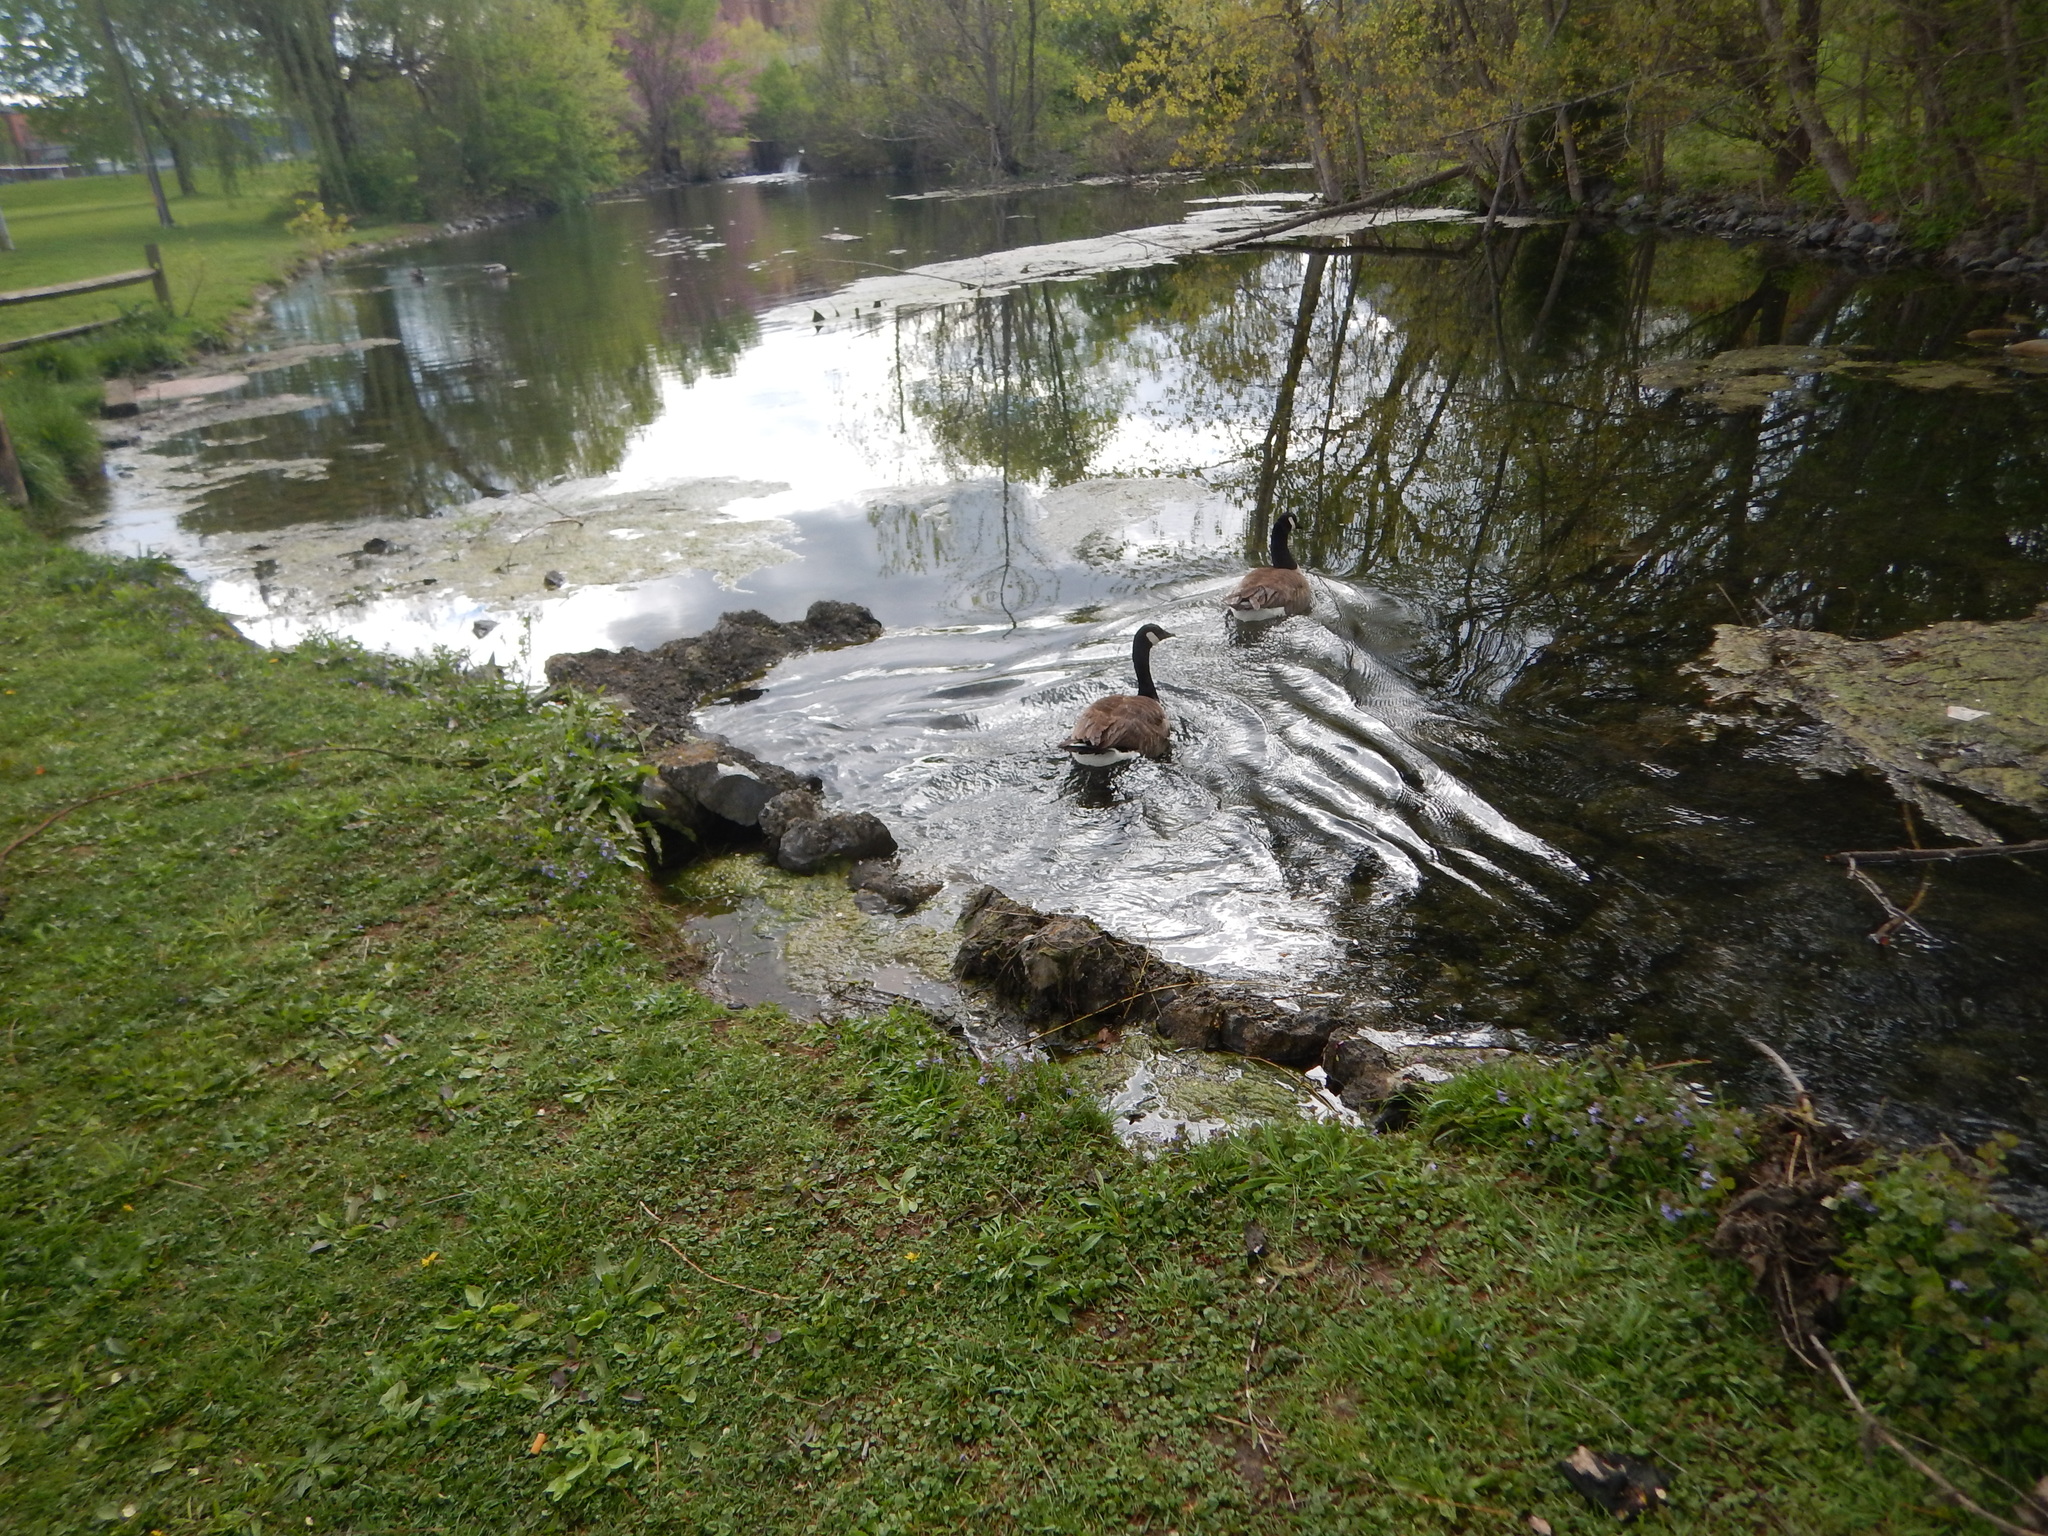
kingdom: Animalia
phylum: Chordata
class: Aves
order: Anseriformes
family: Anatidae
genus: Branta
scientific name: Branta canadensis
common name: Canada goose
